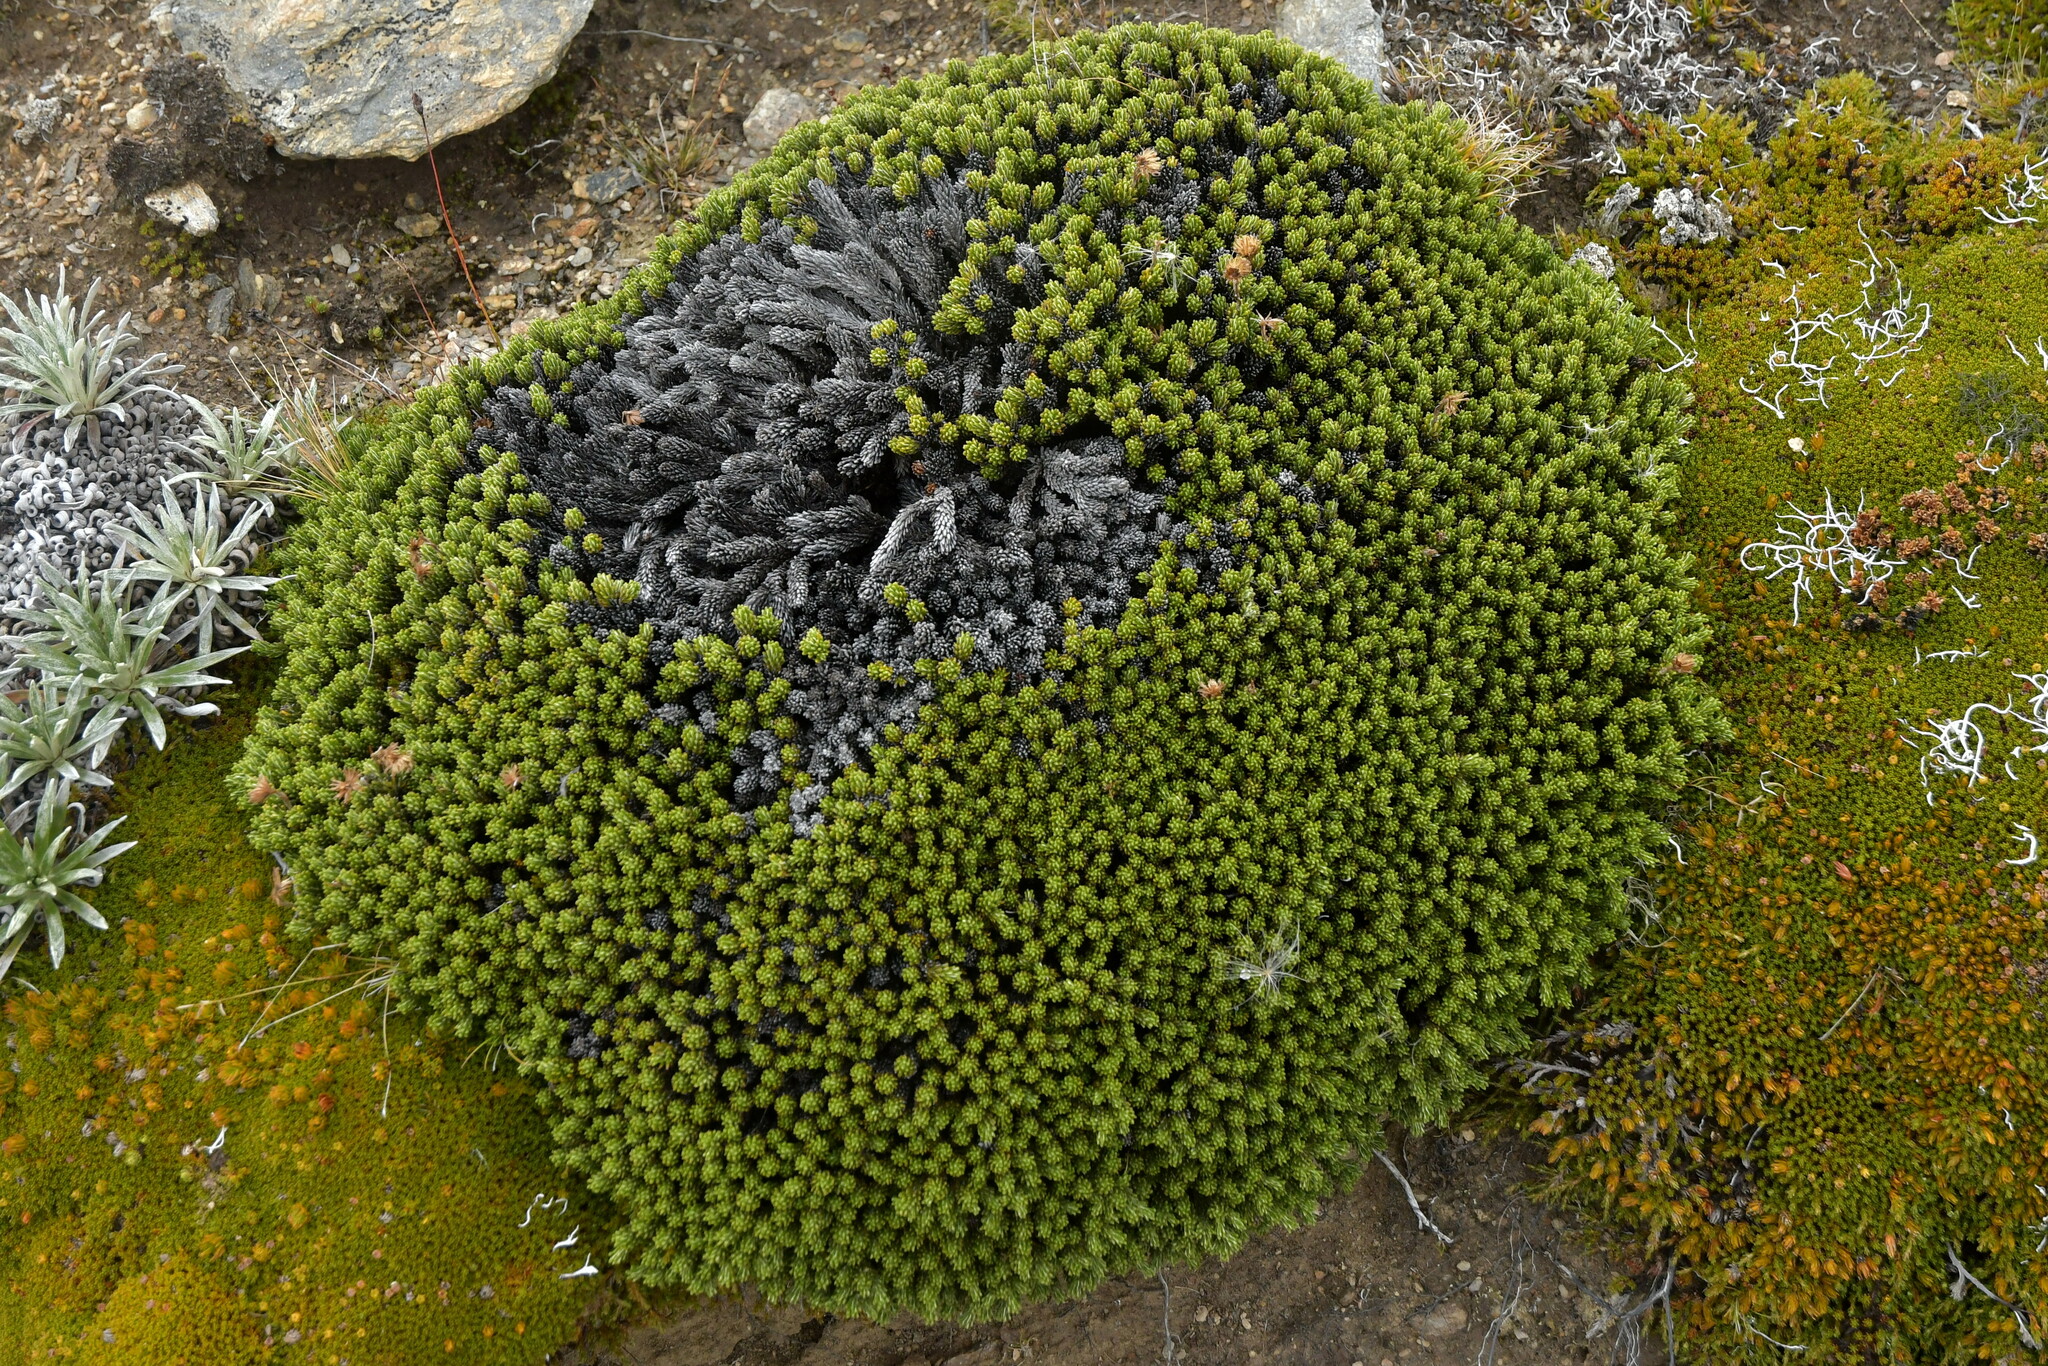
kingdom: Plantae
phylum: Tracheophyta
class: Magnoliopsida
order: Asterales
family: Asteraceae
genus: Celmisia
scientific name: Celmisia ramulosa
